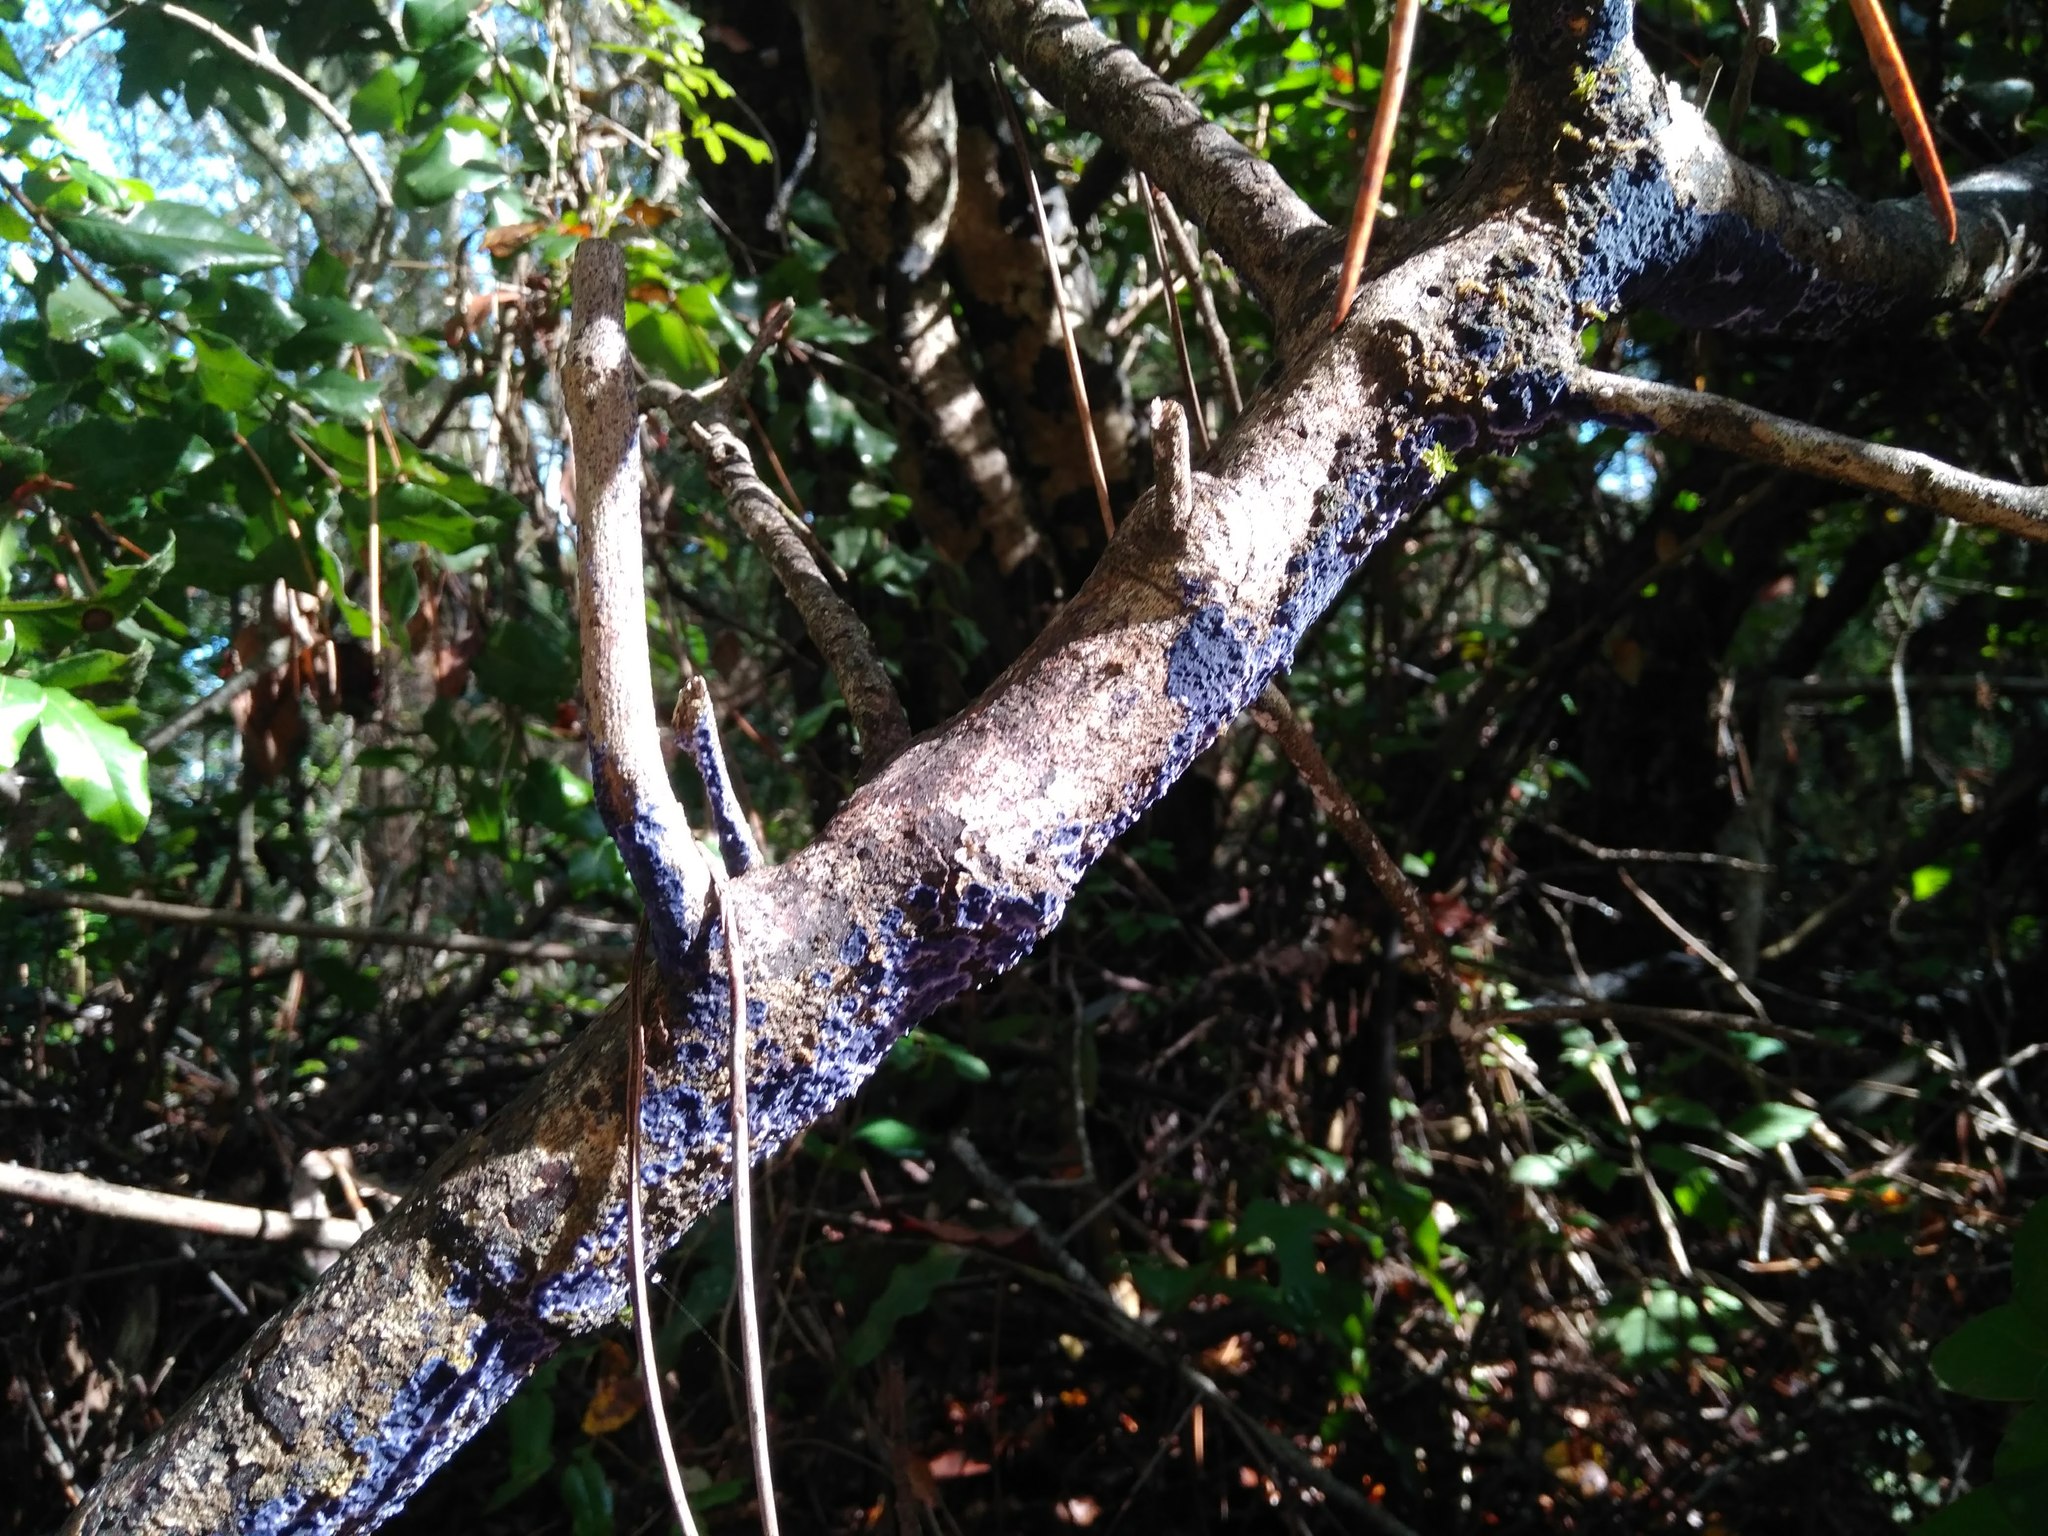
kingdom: Fungi
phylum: Basidiomycota
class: Agaricomycetes
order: Polyporales
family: Phanerochaetaceae
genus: Terana
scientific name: Terana coerulea
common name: Cobalt crust
